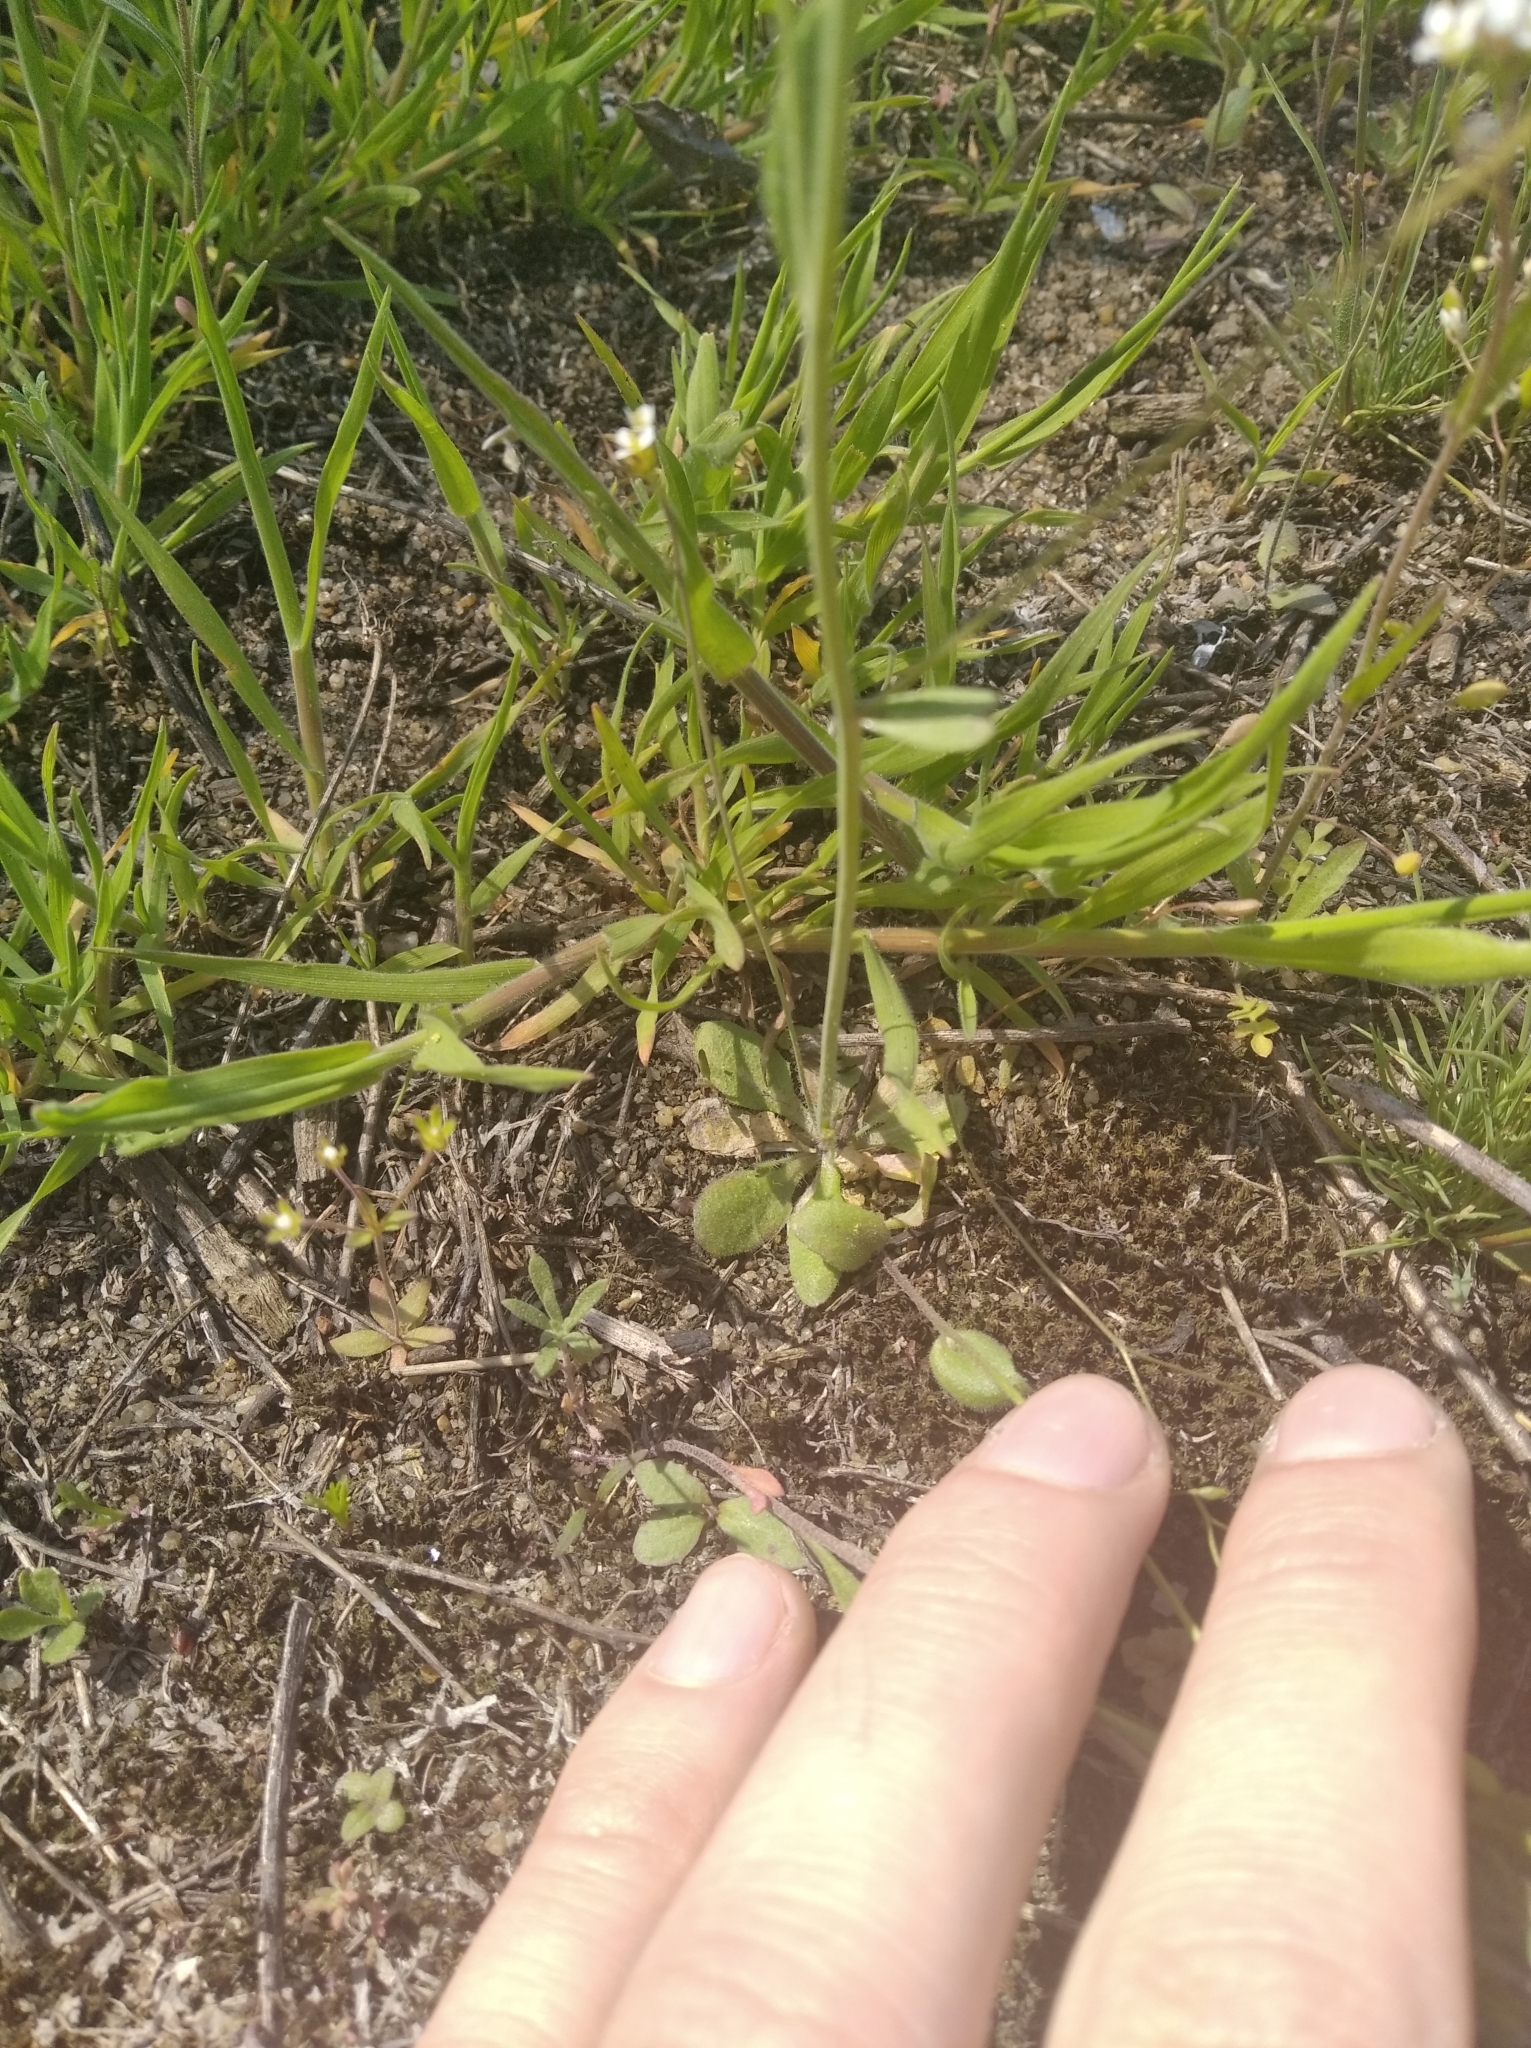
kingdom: Plantae
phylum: Tracheophyta
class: Magnoliopsida
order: Brassicales
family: Brassicaceae
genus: Arabidopsis
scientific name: Arabidopsis thaliana
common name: Thale cress
